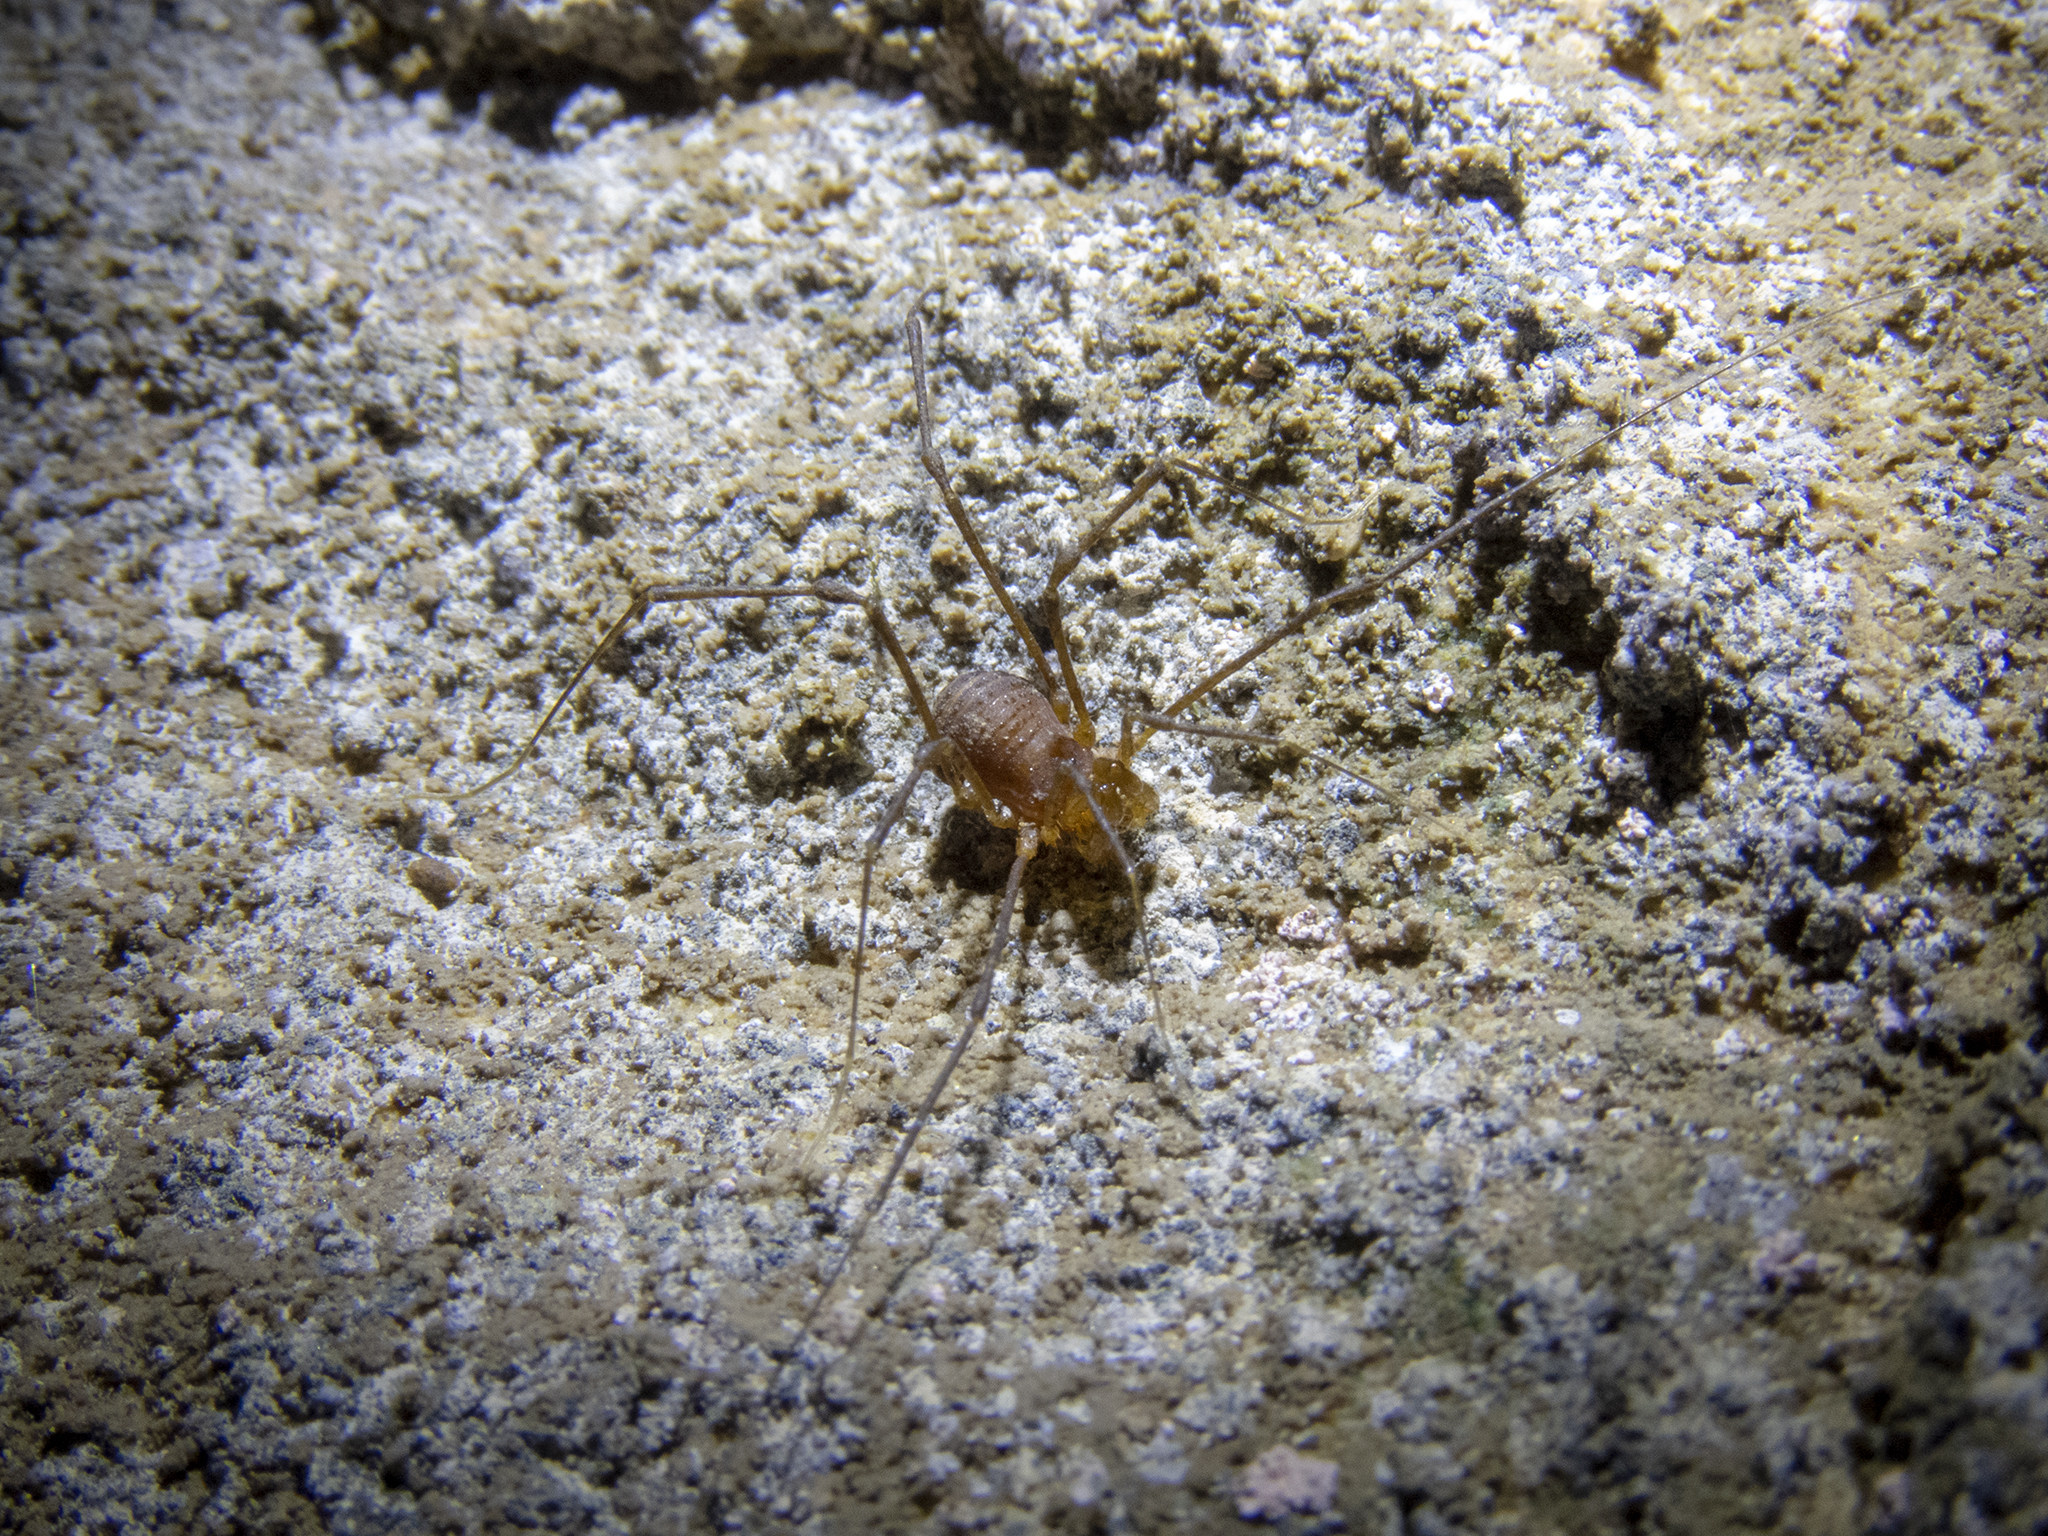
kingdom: Animalia
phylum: Arthropoda
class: Arachnida
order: Opiliones
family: Triaenonychidae
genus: Hendea
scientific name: Hendea myersi
